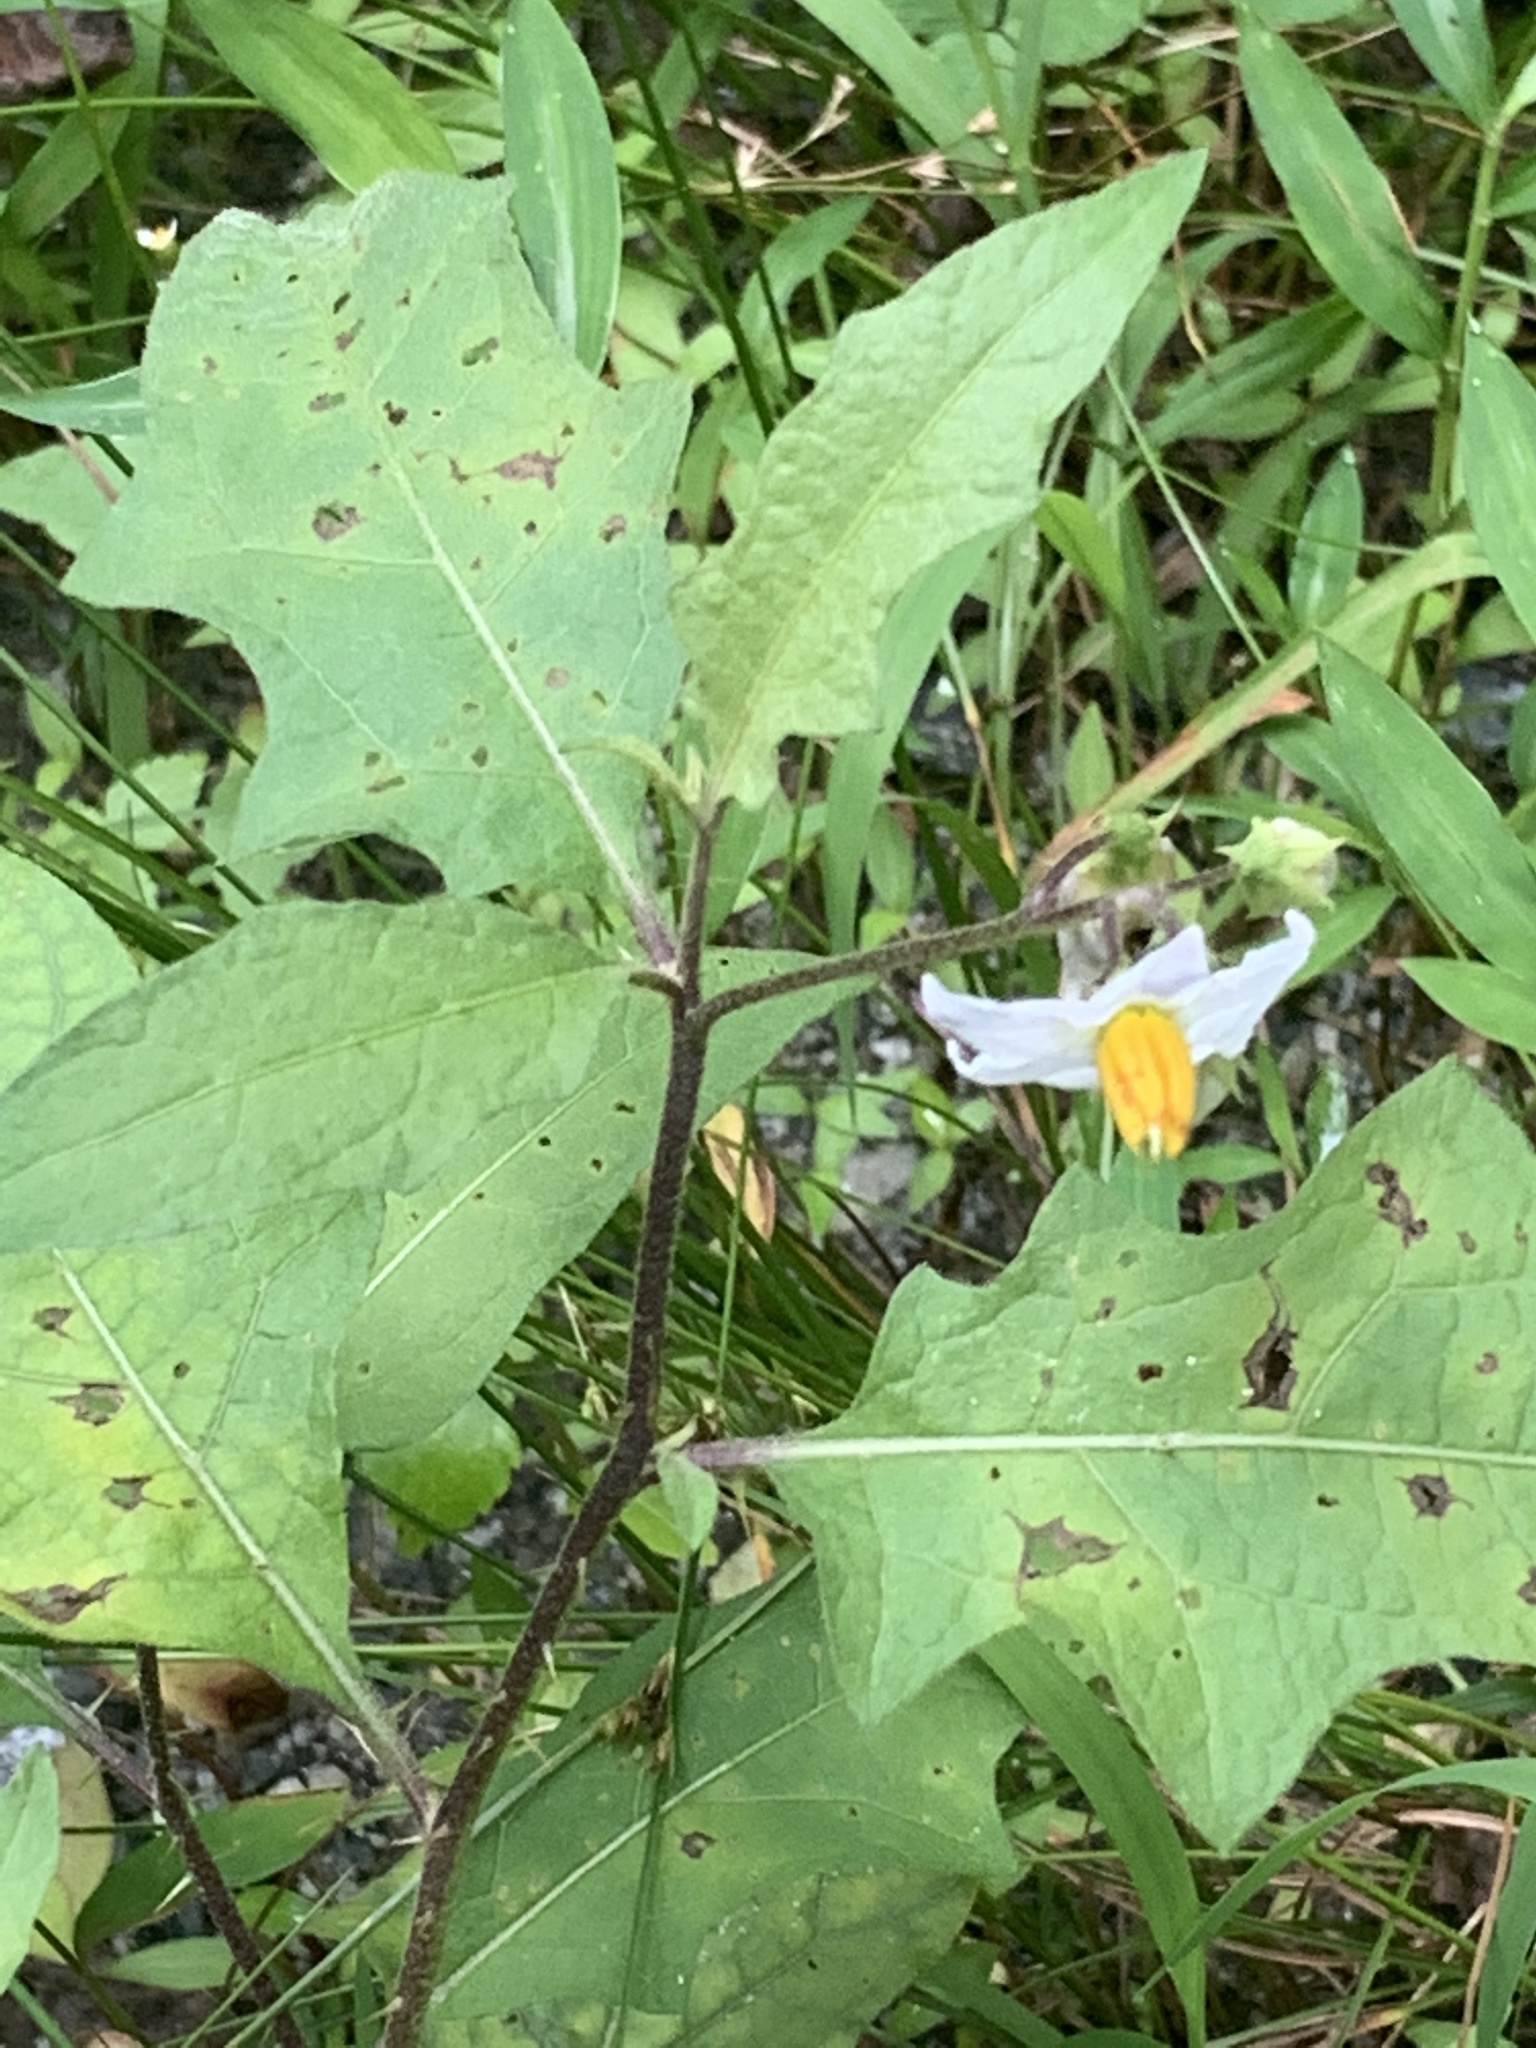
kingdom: Plantae
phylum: Tracheophyta
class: Magnoliopsida
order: Solanales
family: Solanaceae
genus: Solanum
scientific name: Solanum carolinense
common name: Horse-nettle
